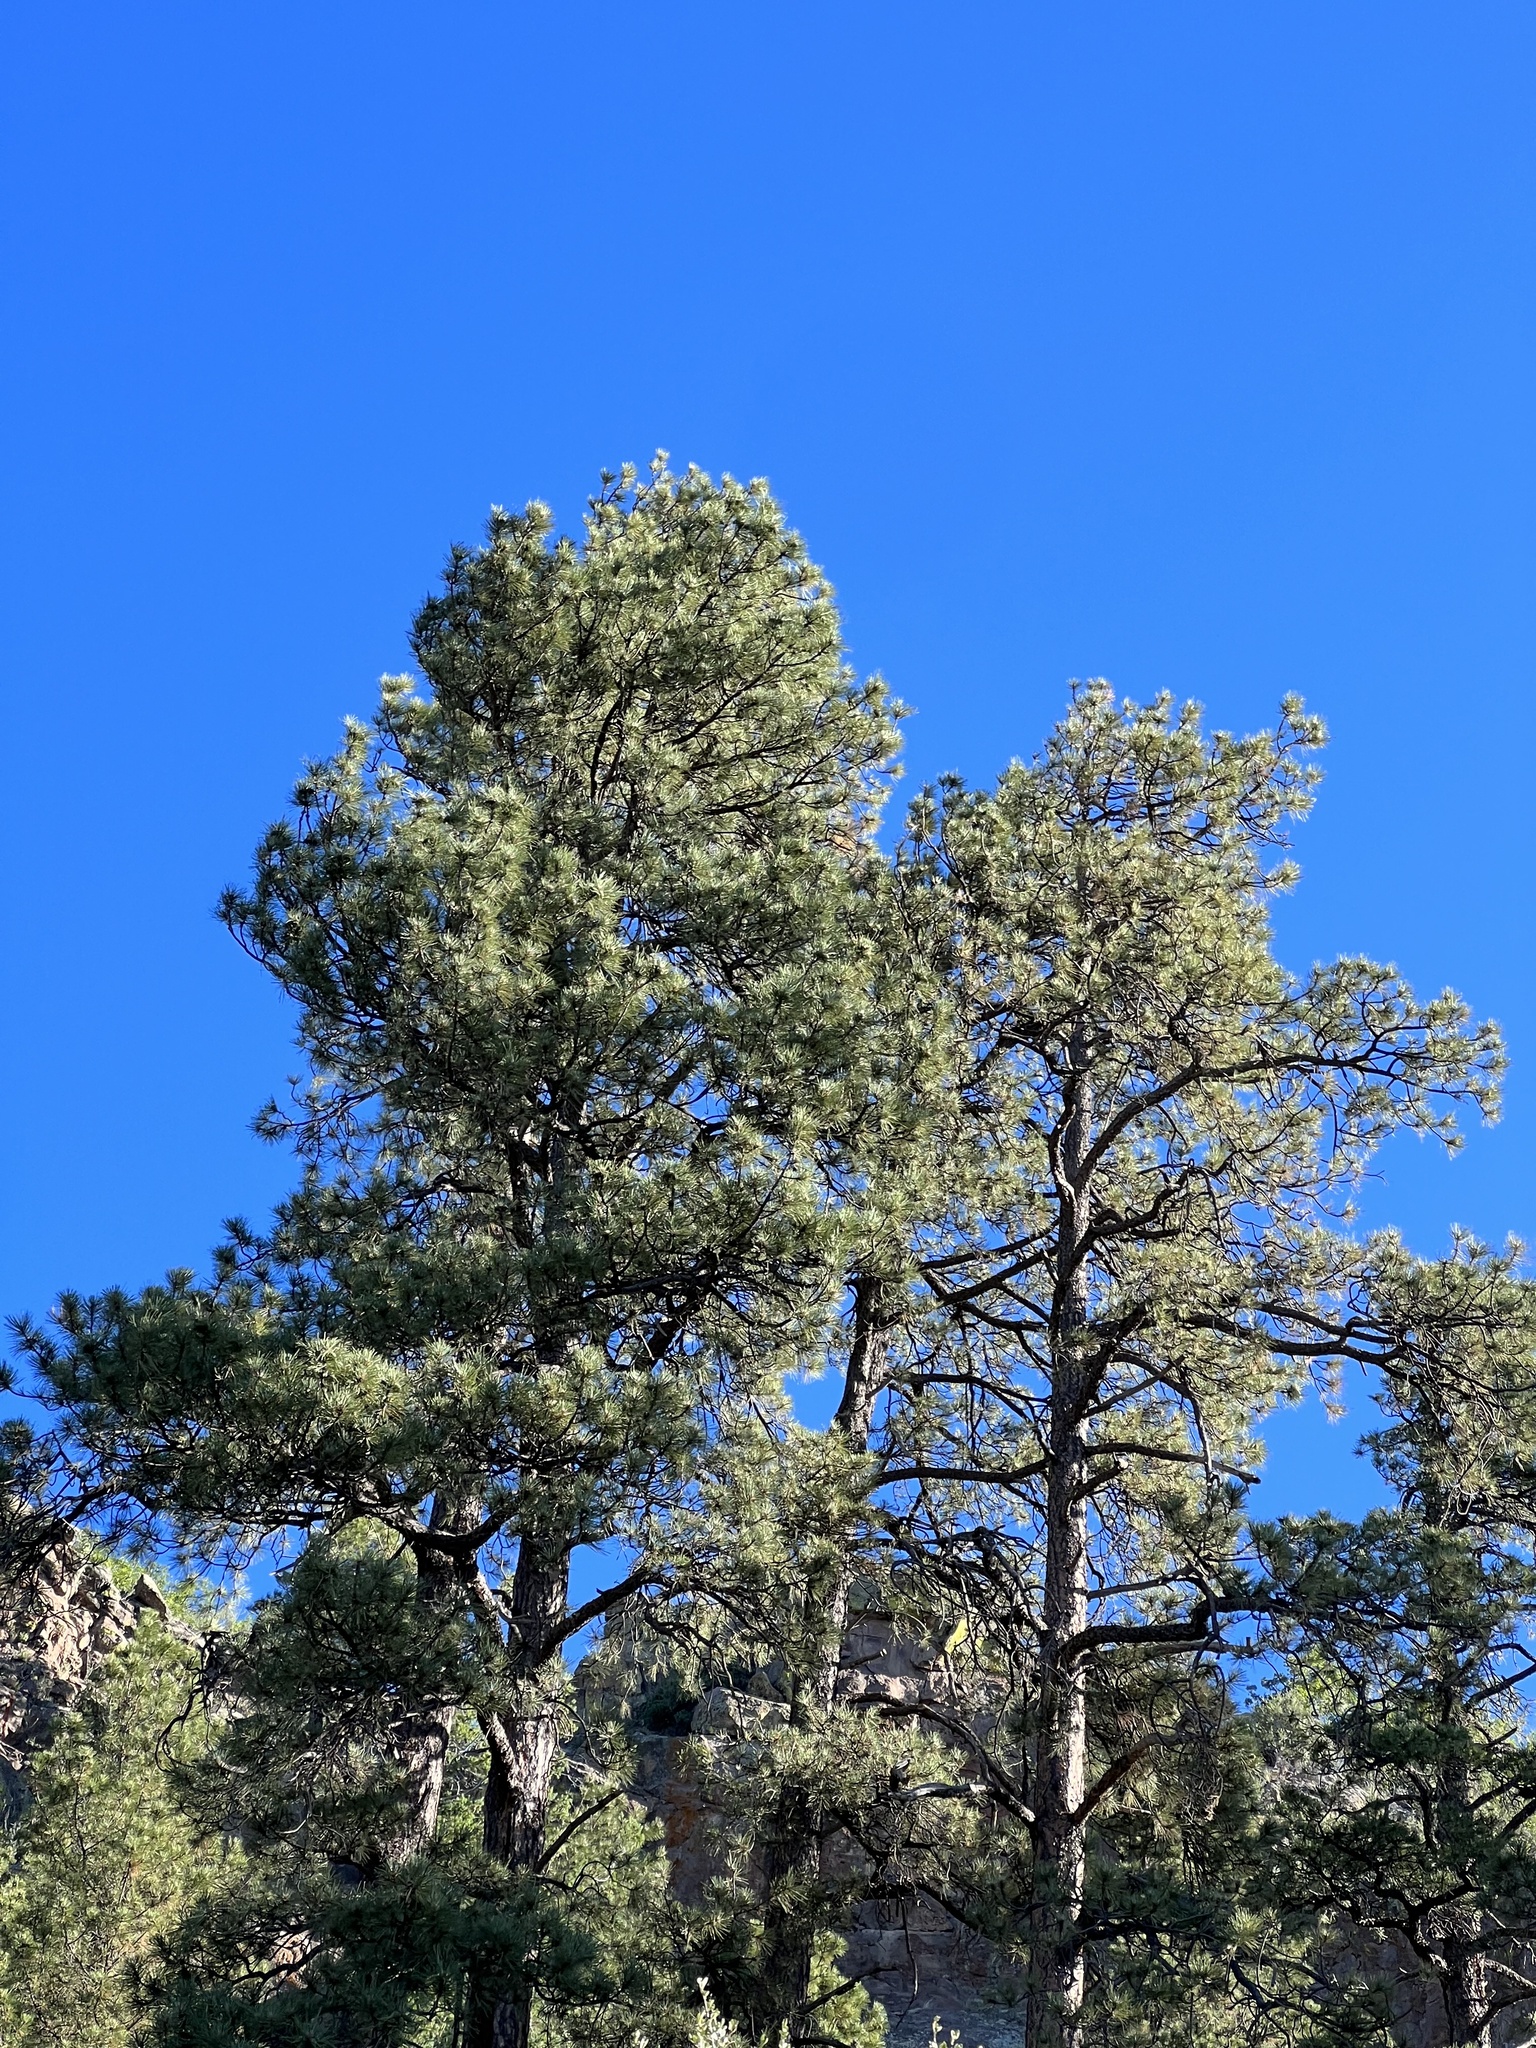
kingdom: Plantae
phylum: Tracheophyta
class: Pinopsida
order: Pinales
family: Pinaceae
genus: Pinus
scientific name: Pinus ponderosa
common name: Western yellow-pine
